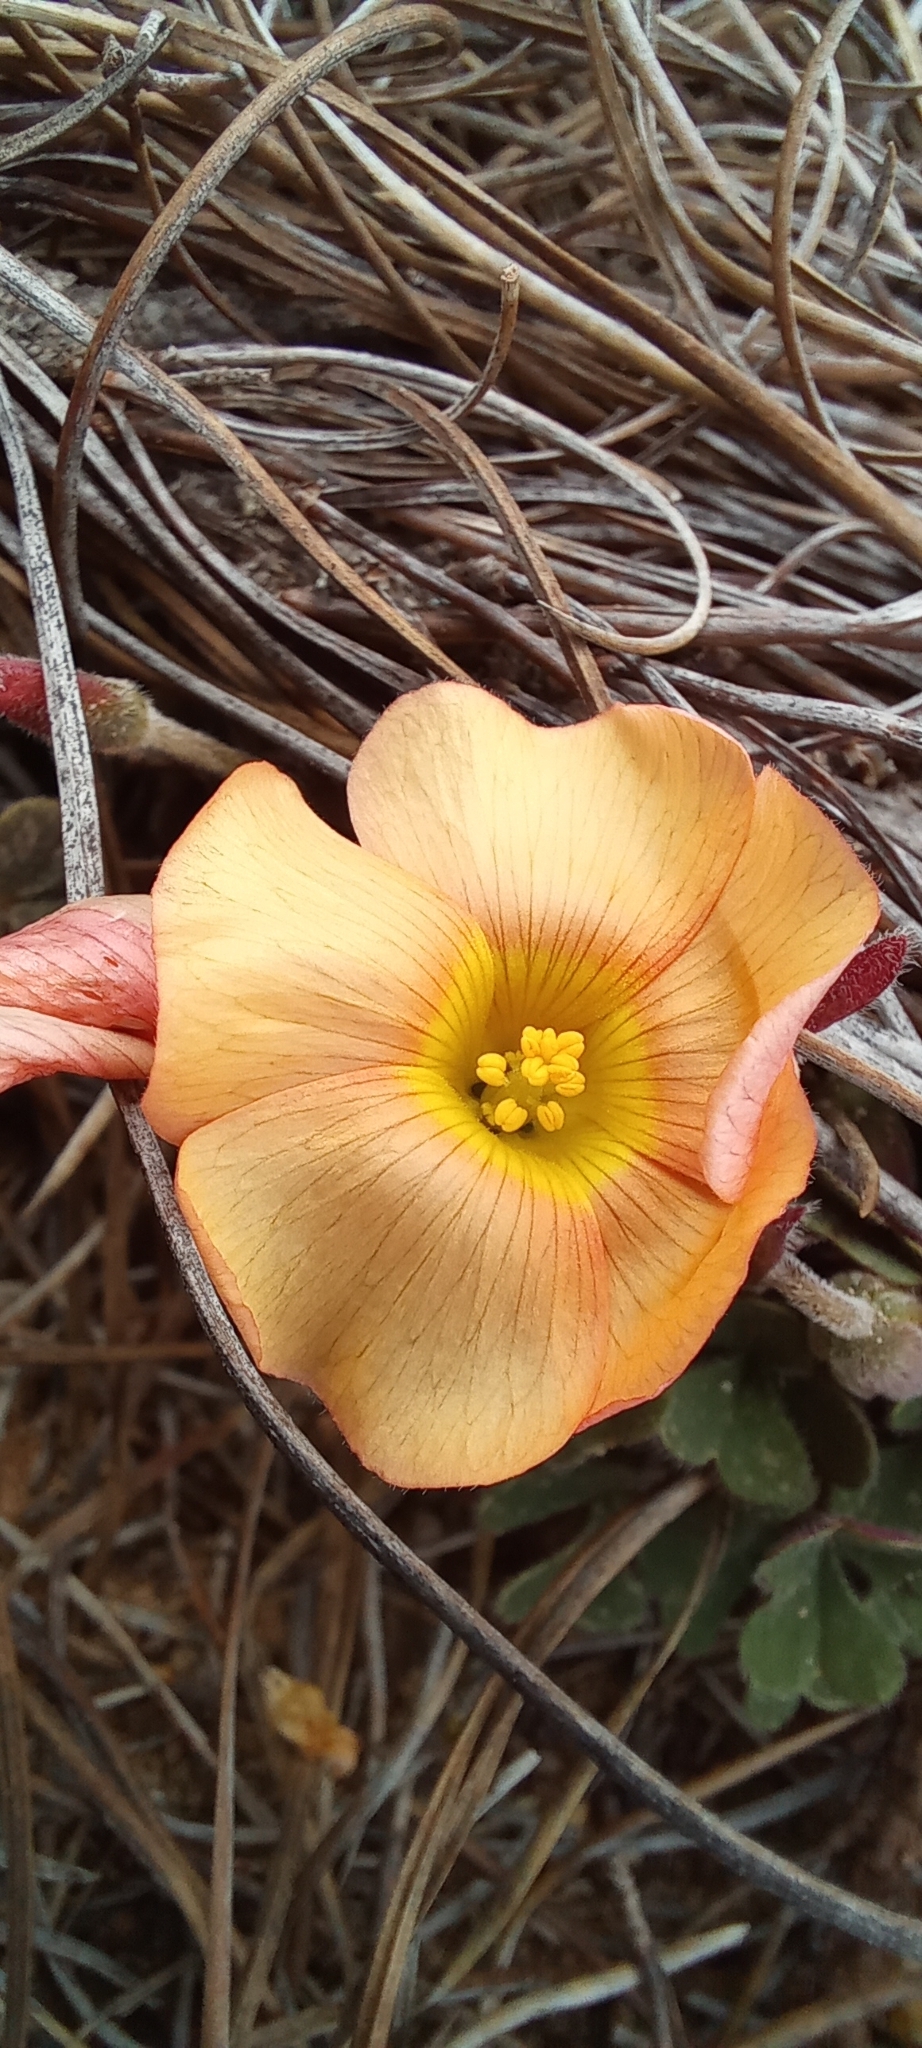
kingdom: Plantae
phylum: Tracheophyta
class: Magnoliopsida
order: Oxalidales
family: Oxalidaceae
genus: Oxalis
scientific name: Oxalis obtusa
